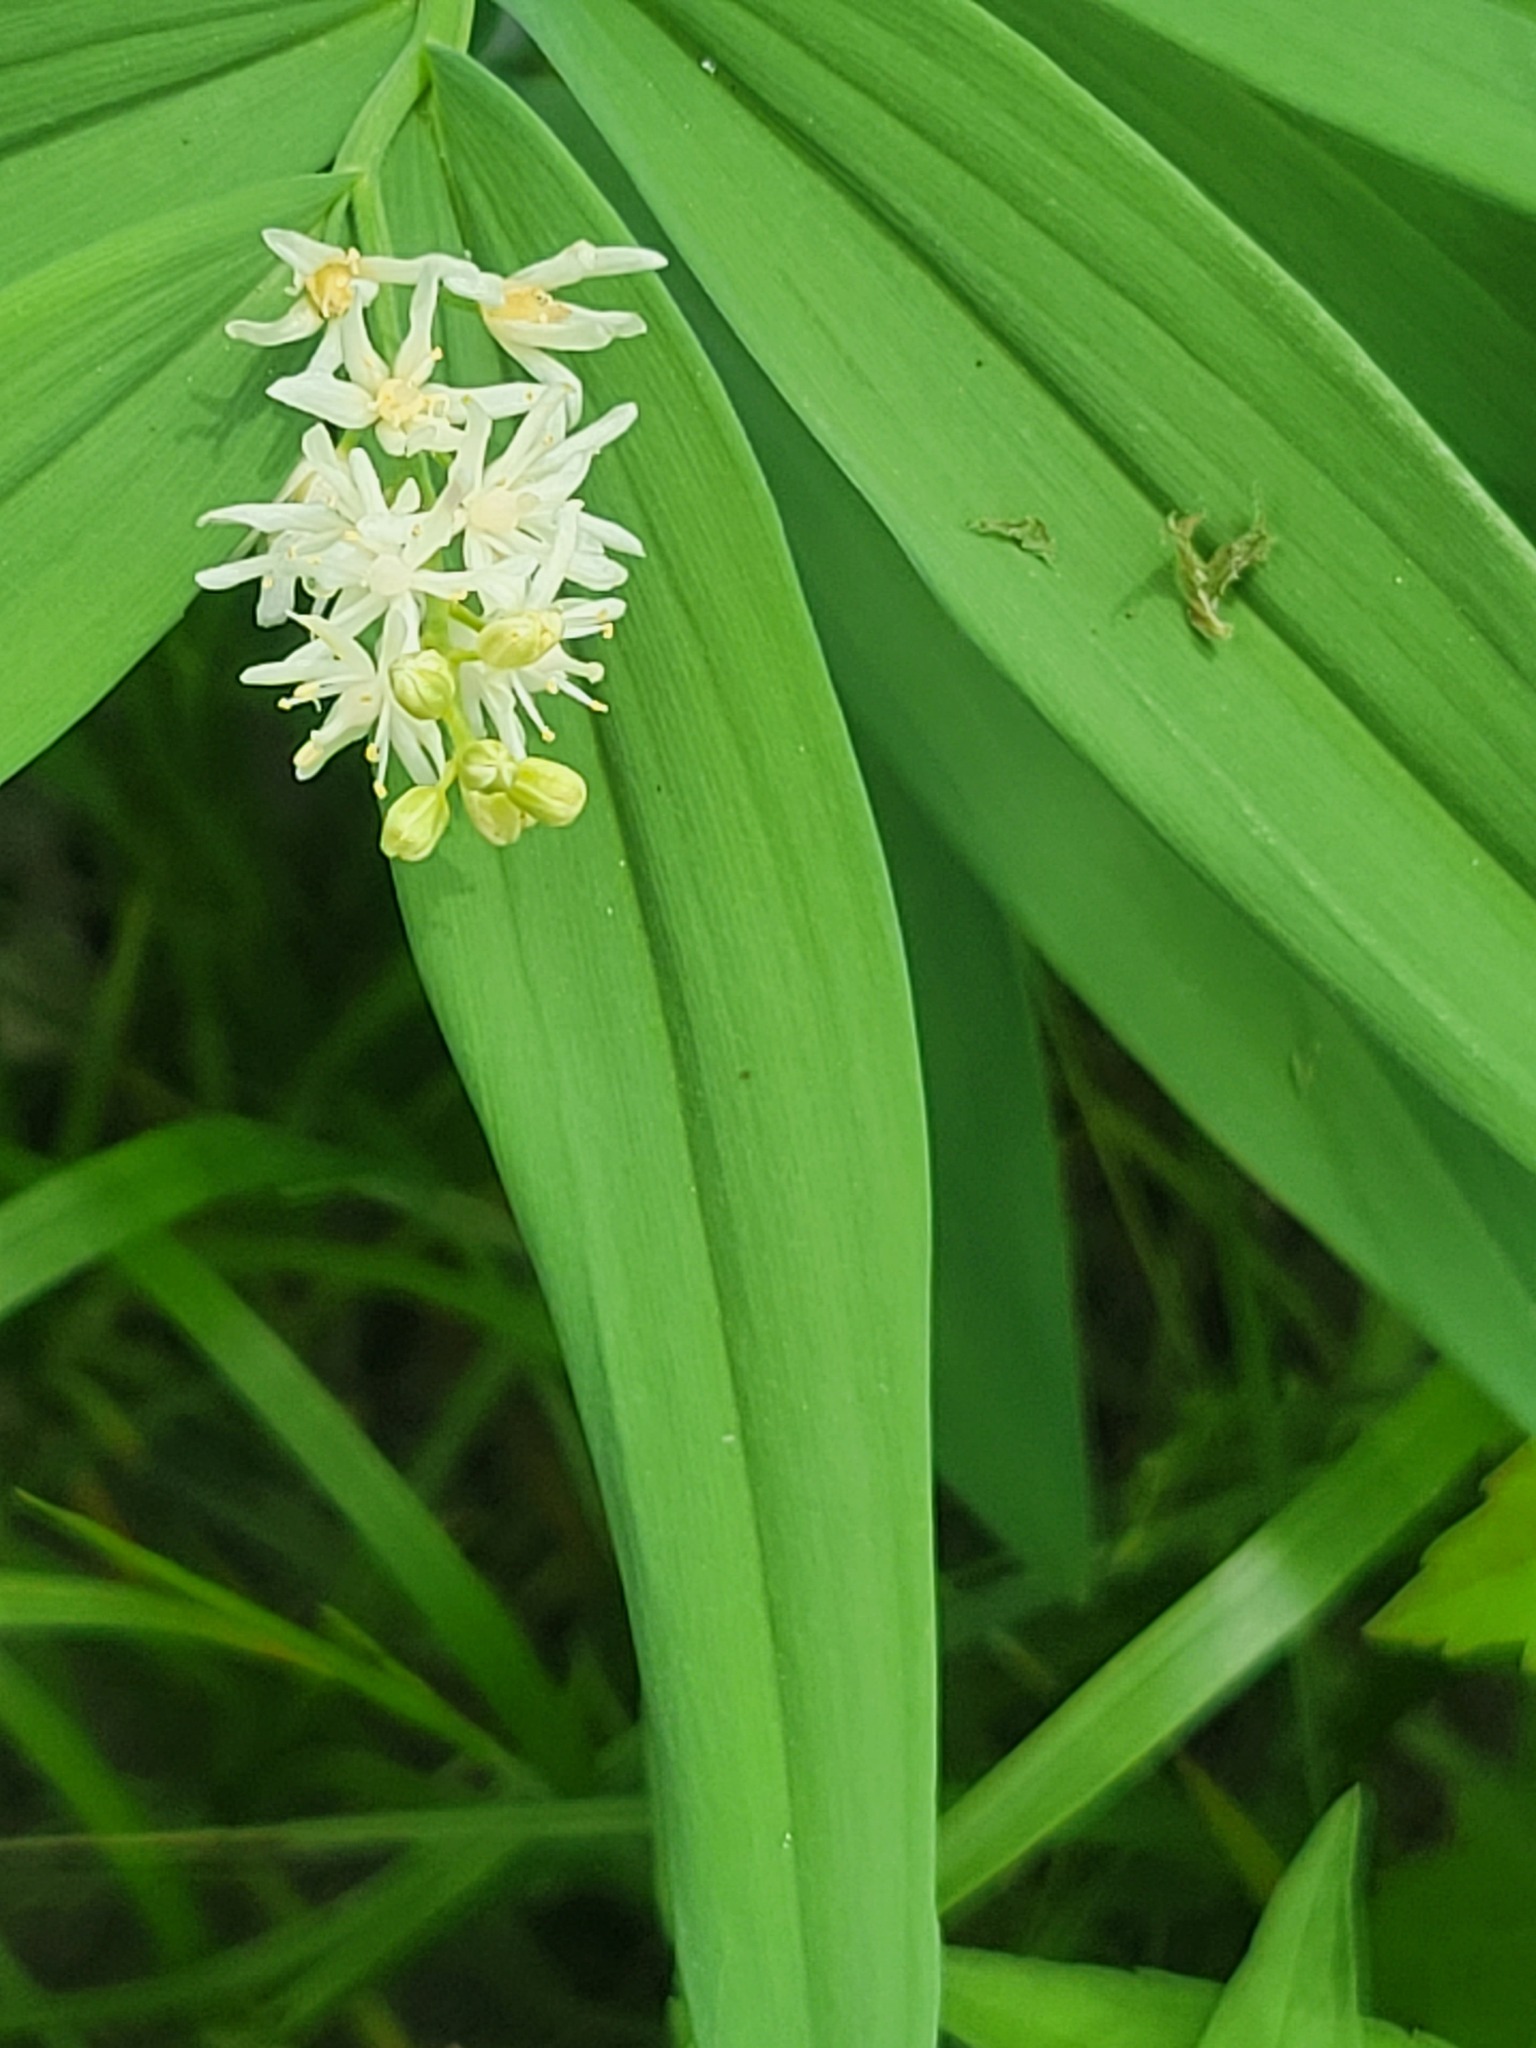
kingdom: Plantae
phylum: Tracheophyta
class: Liliopsida
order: Asparagales
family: Asparagaceae
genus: Maianthemum
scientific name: Maianthemum stellatum
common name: Little false solomon's seal
